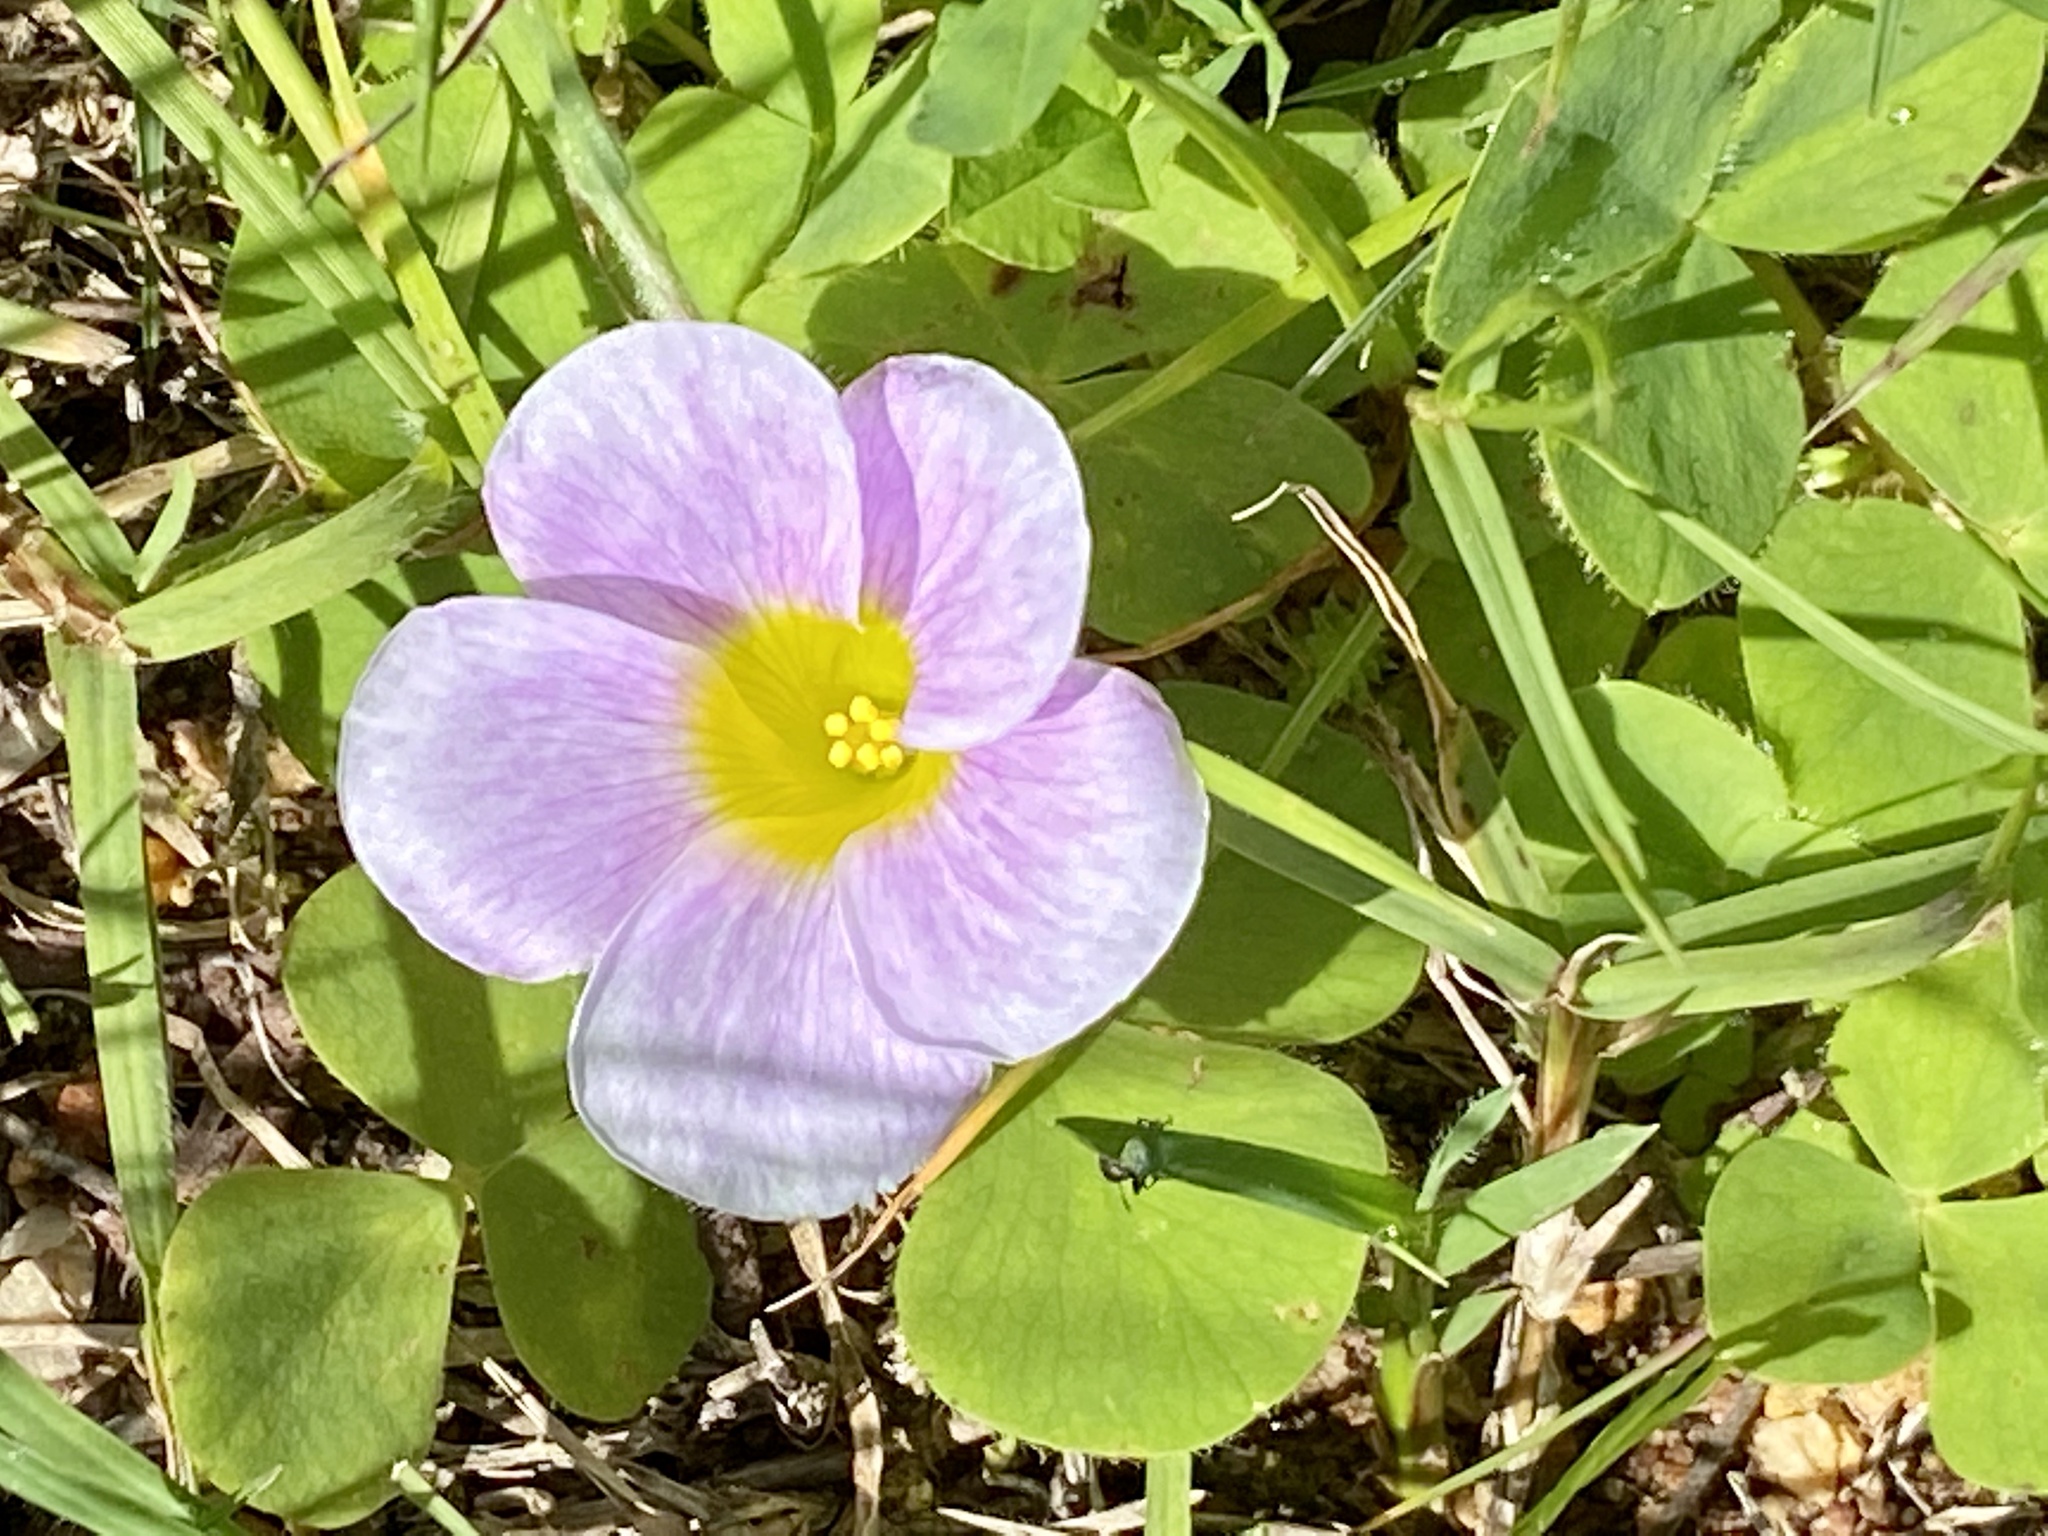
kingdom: Plantae
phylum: Tracheophyta
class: Magnoliopsida
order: Oxalidales
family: Oxalidaceae
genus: Oxalis
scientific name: Oxalis purpurea
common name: Purple woodsorrel
